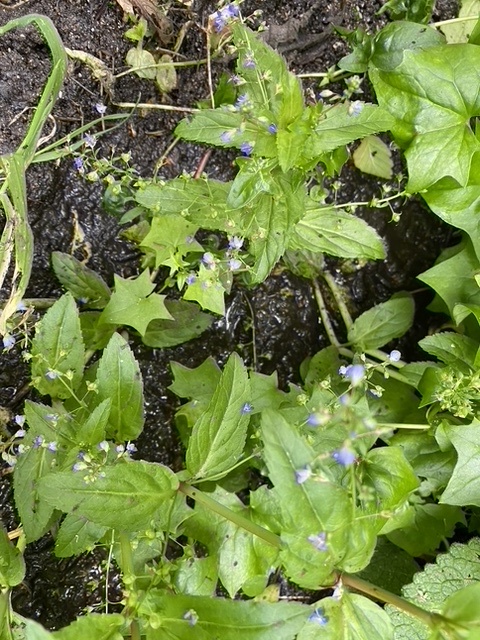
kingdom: Plantae
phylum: Tracheophyta
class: Magnoliopsida
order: Lamiales
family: Plantaginaceae
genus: Veronica
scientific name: Veronica americana
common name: American brooklime
